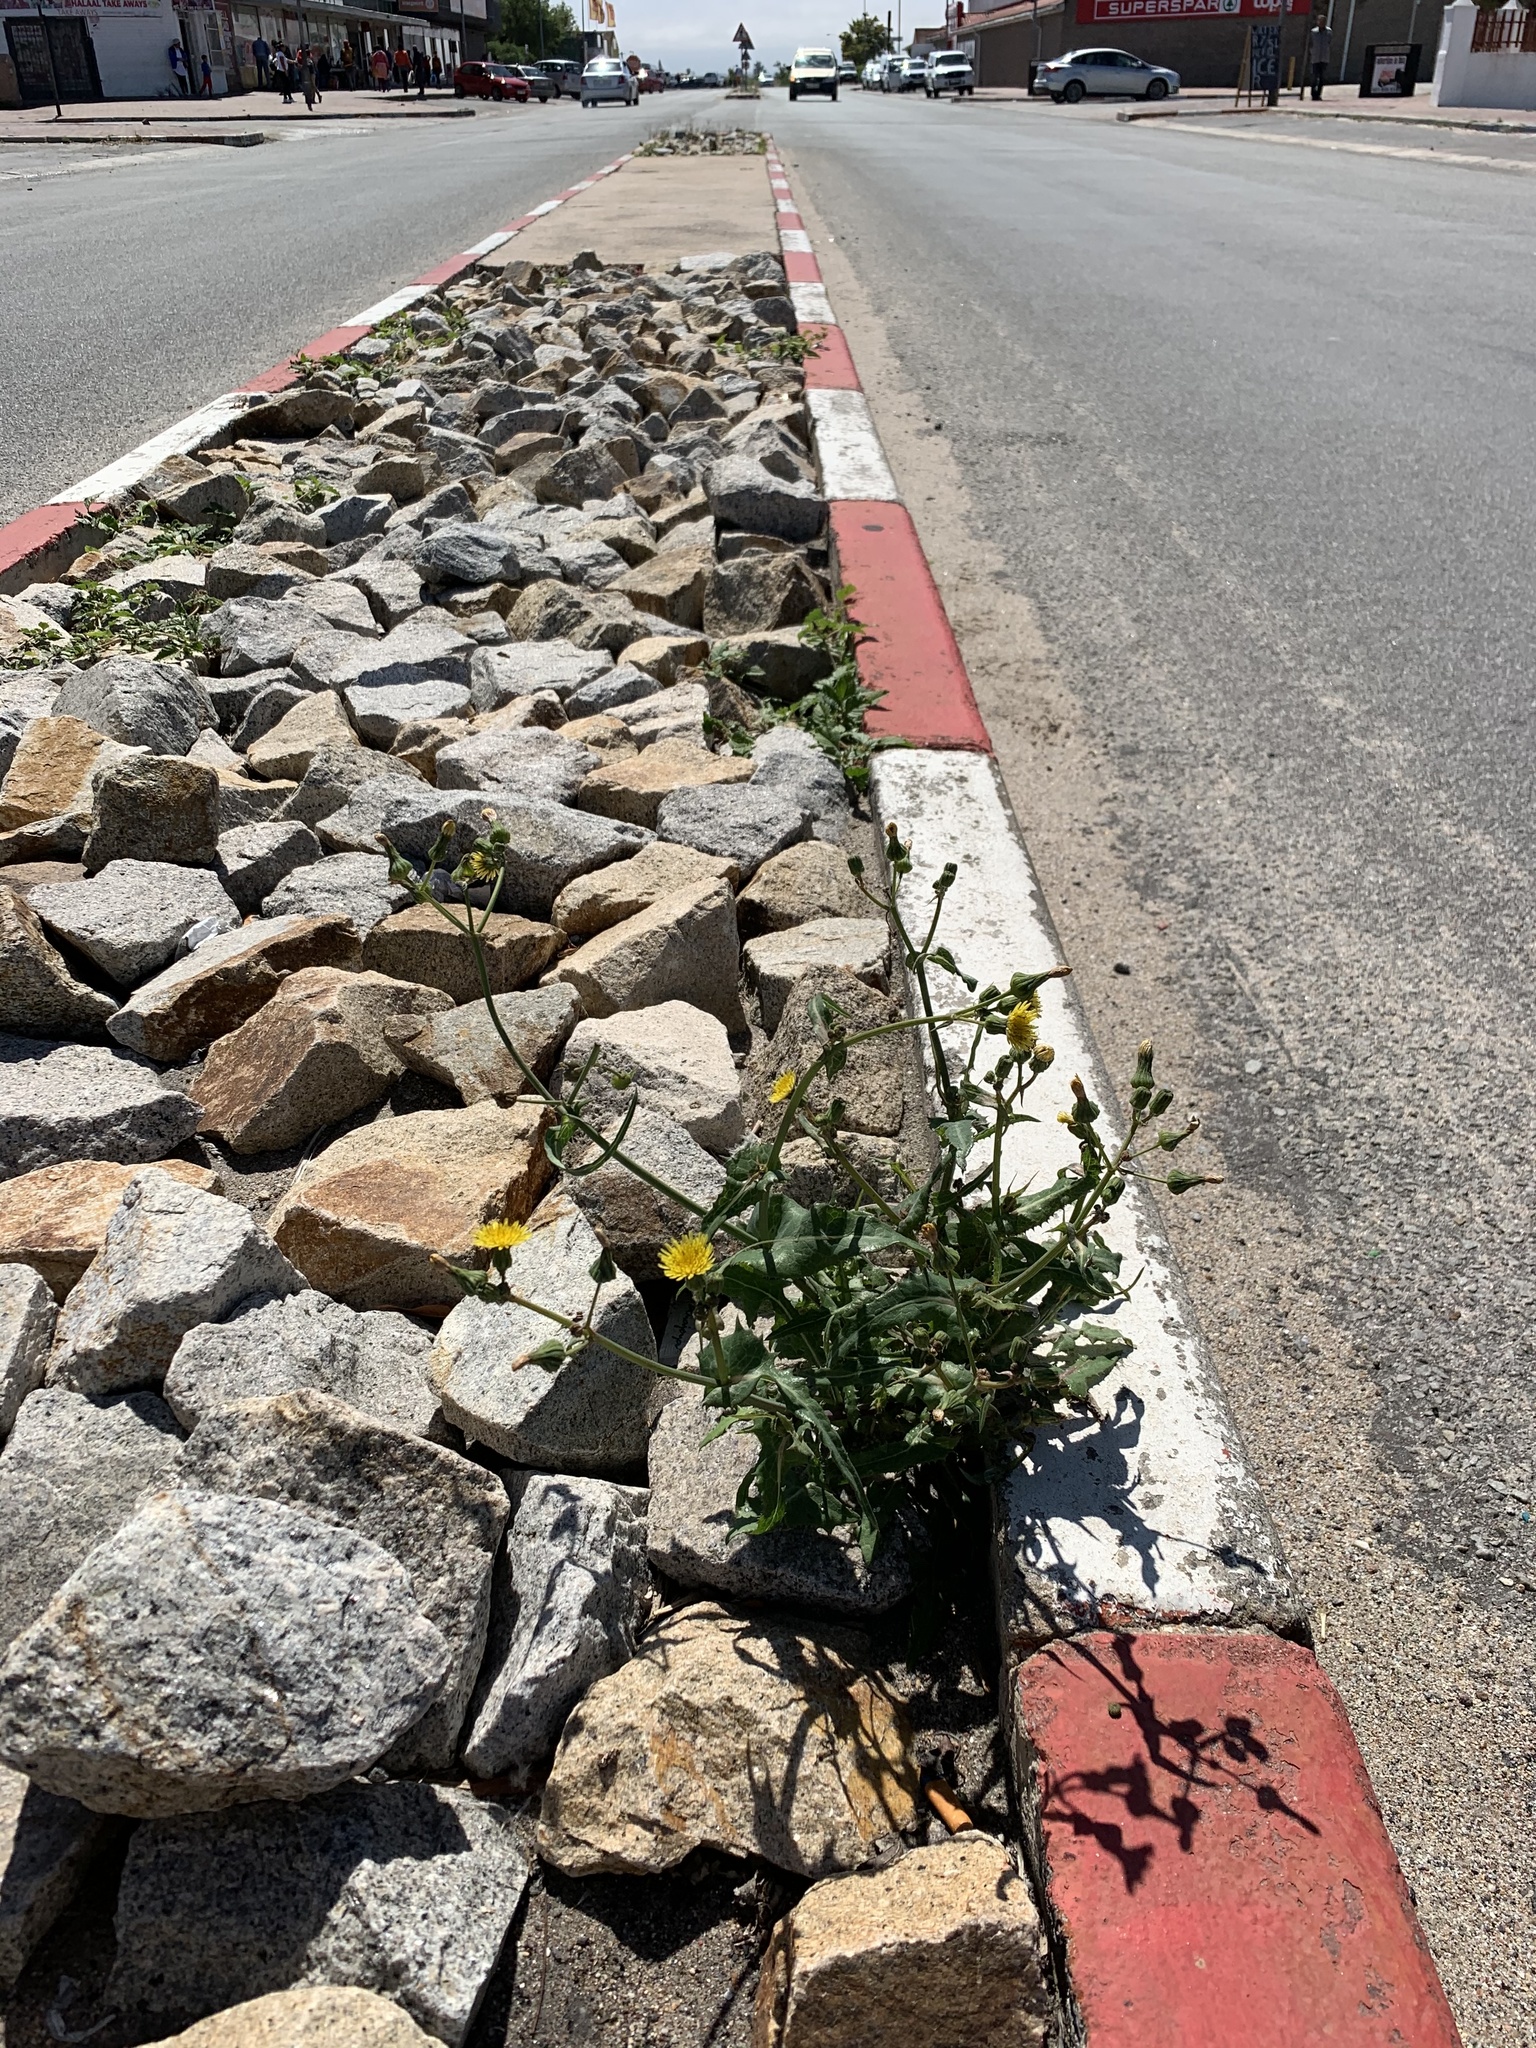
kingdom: Plantae
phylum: Tracheophyta
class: Magnoliopsida
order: Asterales
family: Asteraceae
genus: Sonchus
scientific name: Sonchus oleraceus
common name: Common sowthistle
